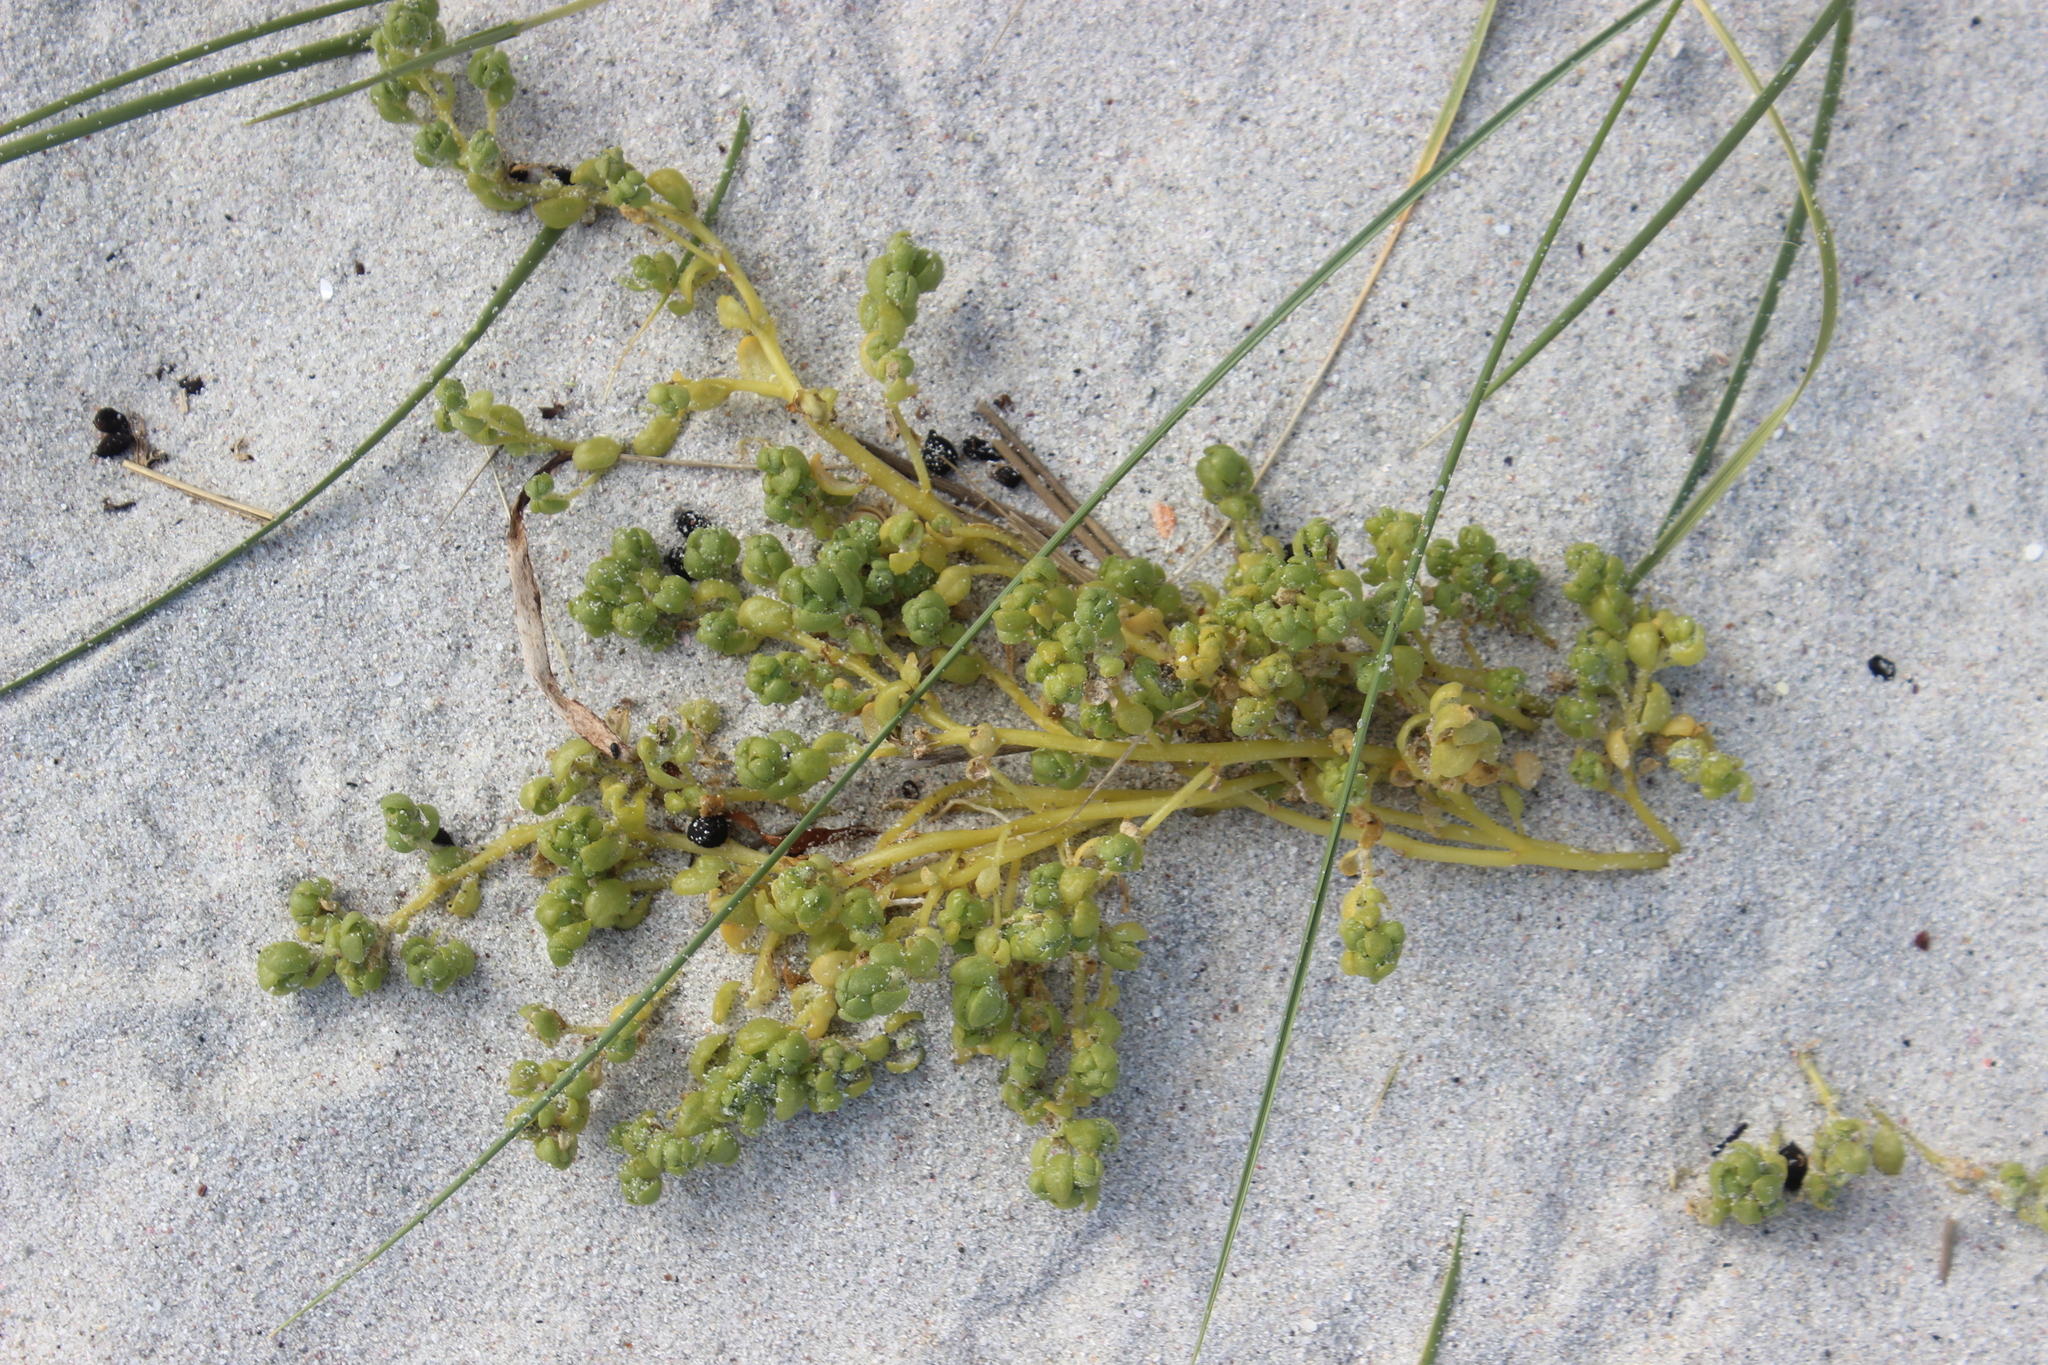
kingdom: Plantae
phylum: Tracheophyta
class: Magnoliopsida
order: Caryophyllales
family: Amaranthaceae
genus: Atriplex
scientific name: Atriplex billardierei
